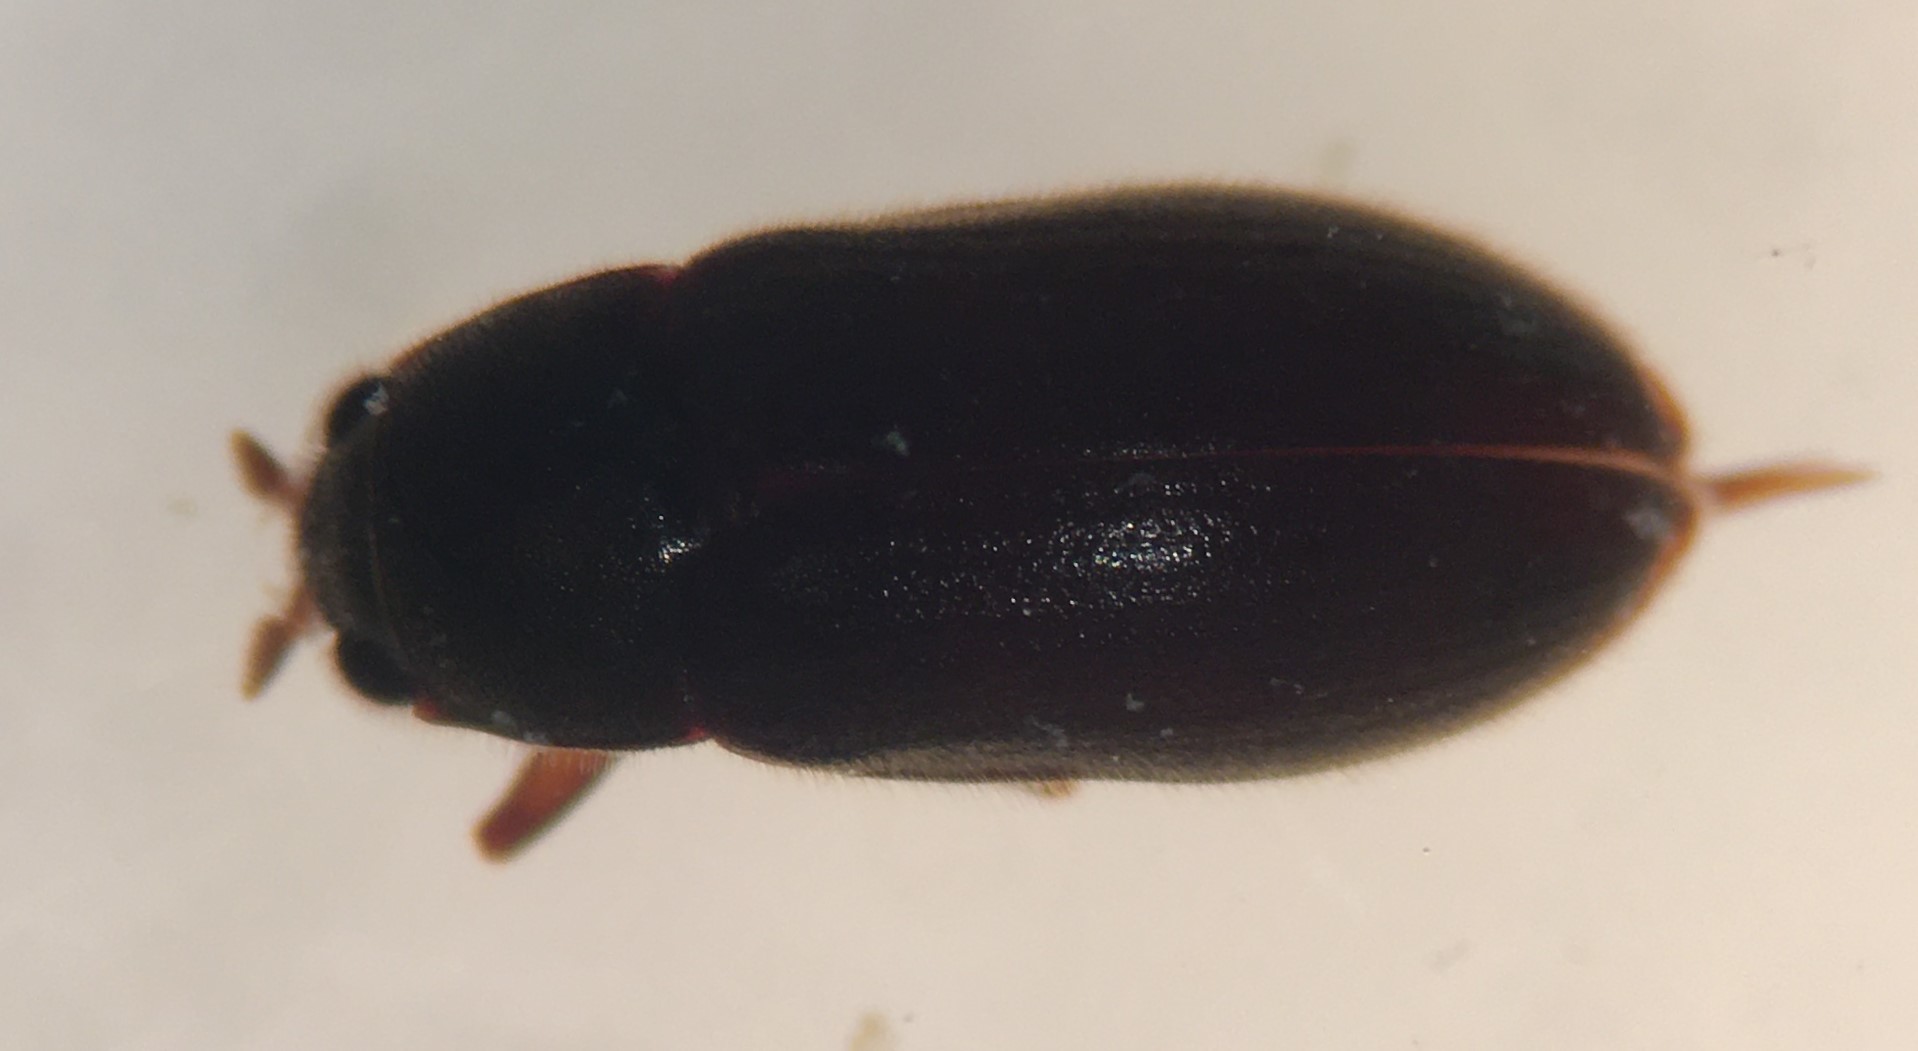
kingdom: Animalia
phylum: Arthropoda
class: Insecta
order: Coleoptera
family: Dryopidae
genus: Pelonomus
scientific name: Pelonomus obscurus
